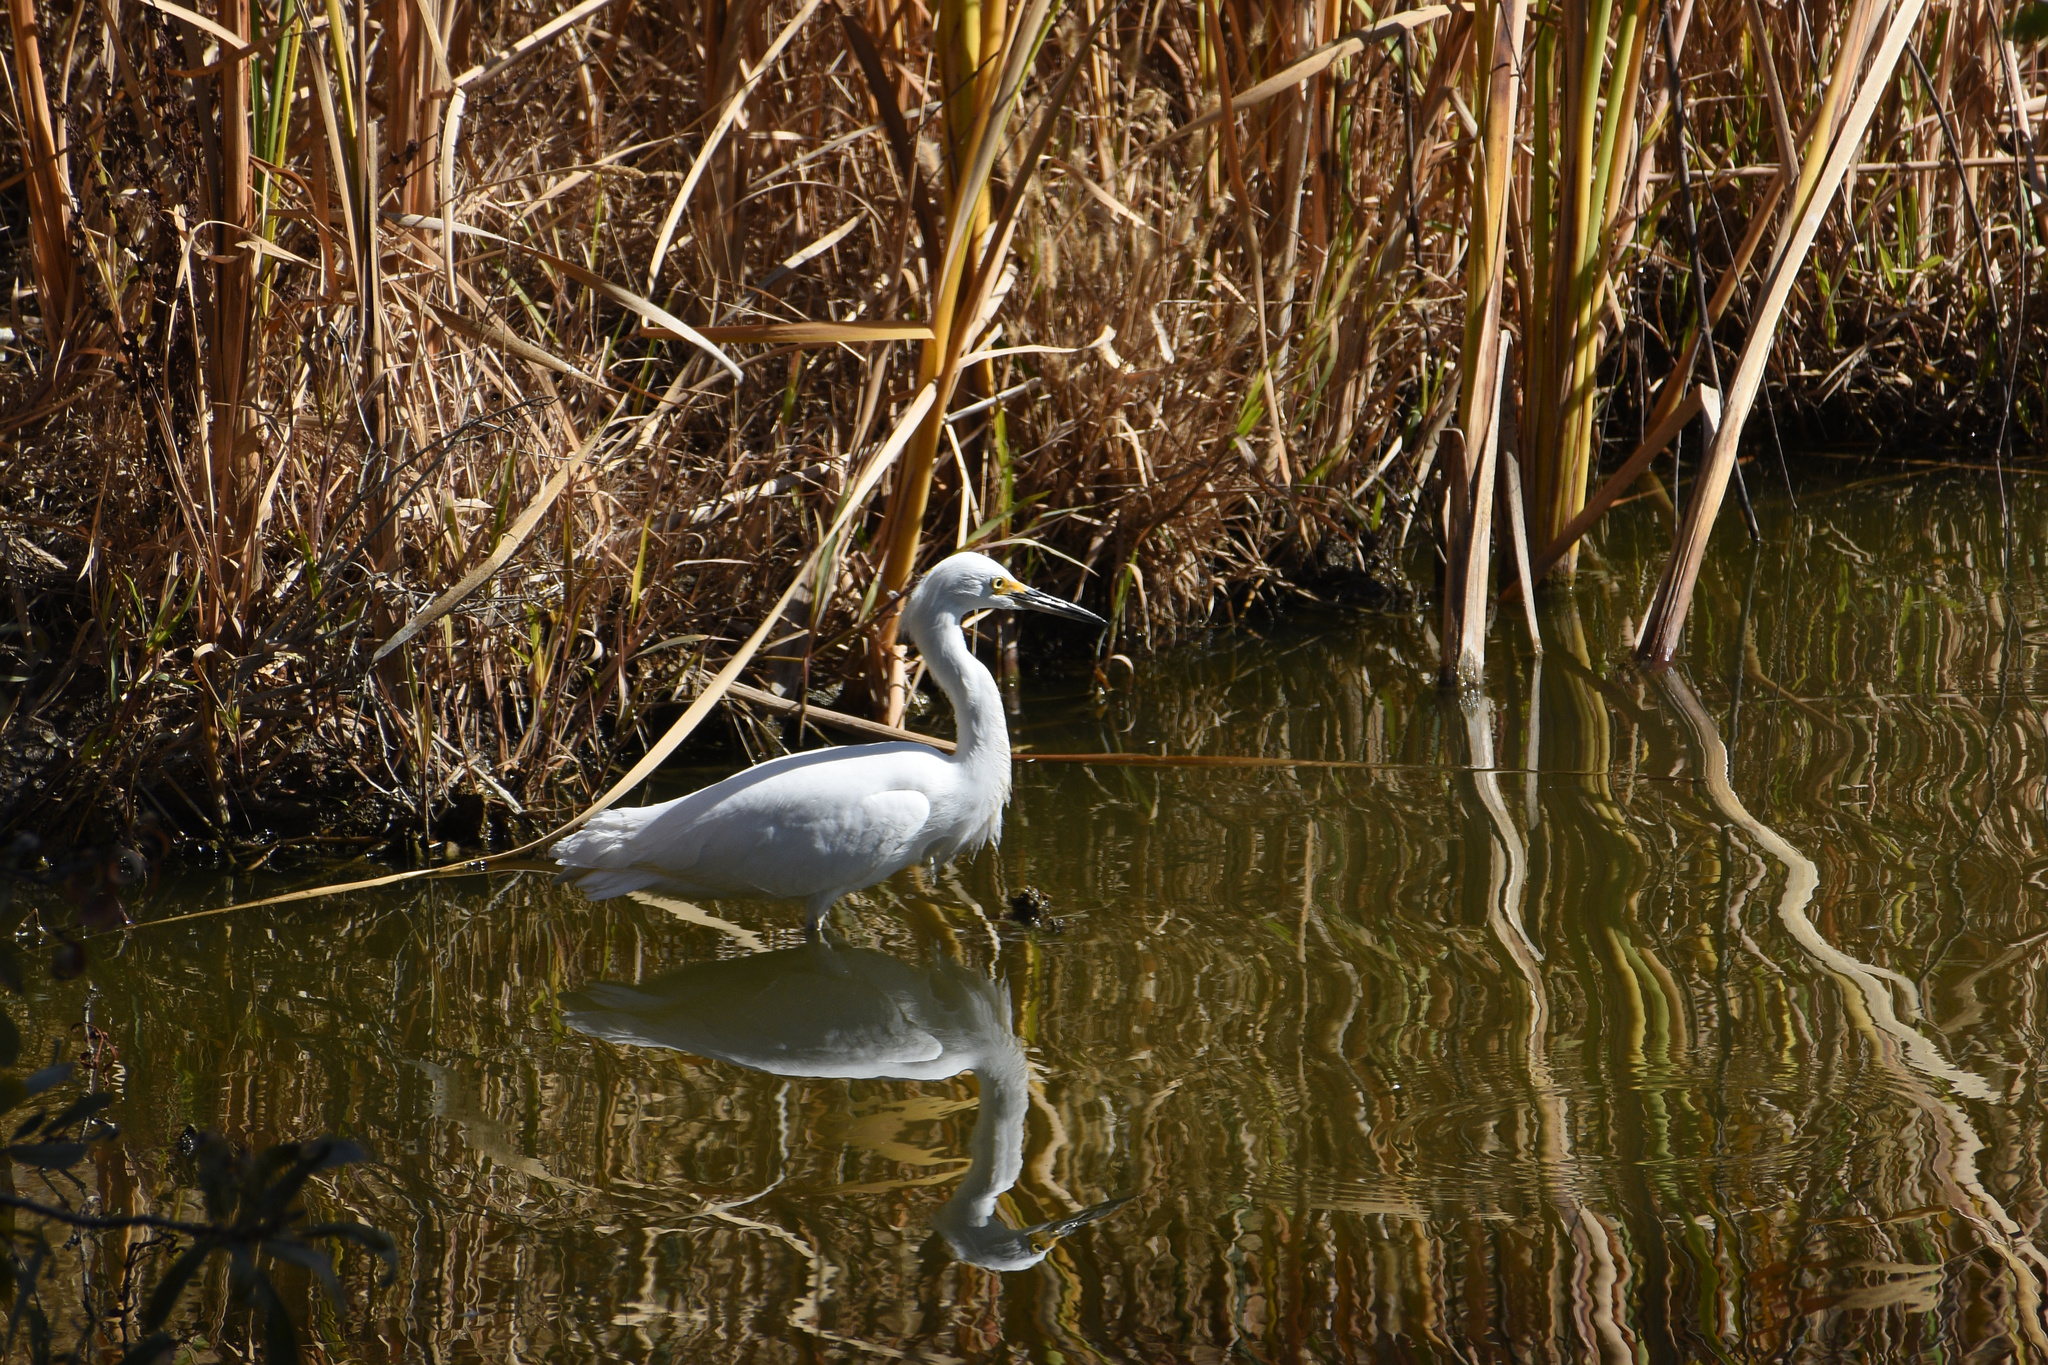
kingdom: Animalia
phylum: Chordata
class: Aves
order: Pelecaniformes
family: Ardeidae
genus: Egretta
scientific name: Egretta thula
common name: Snowy egret
